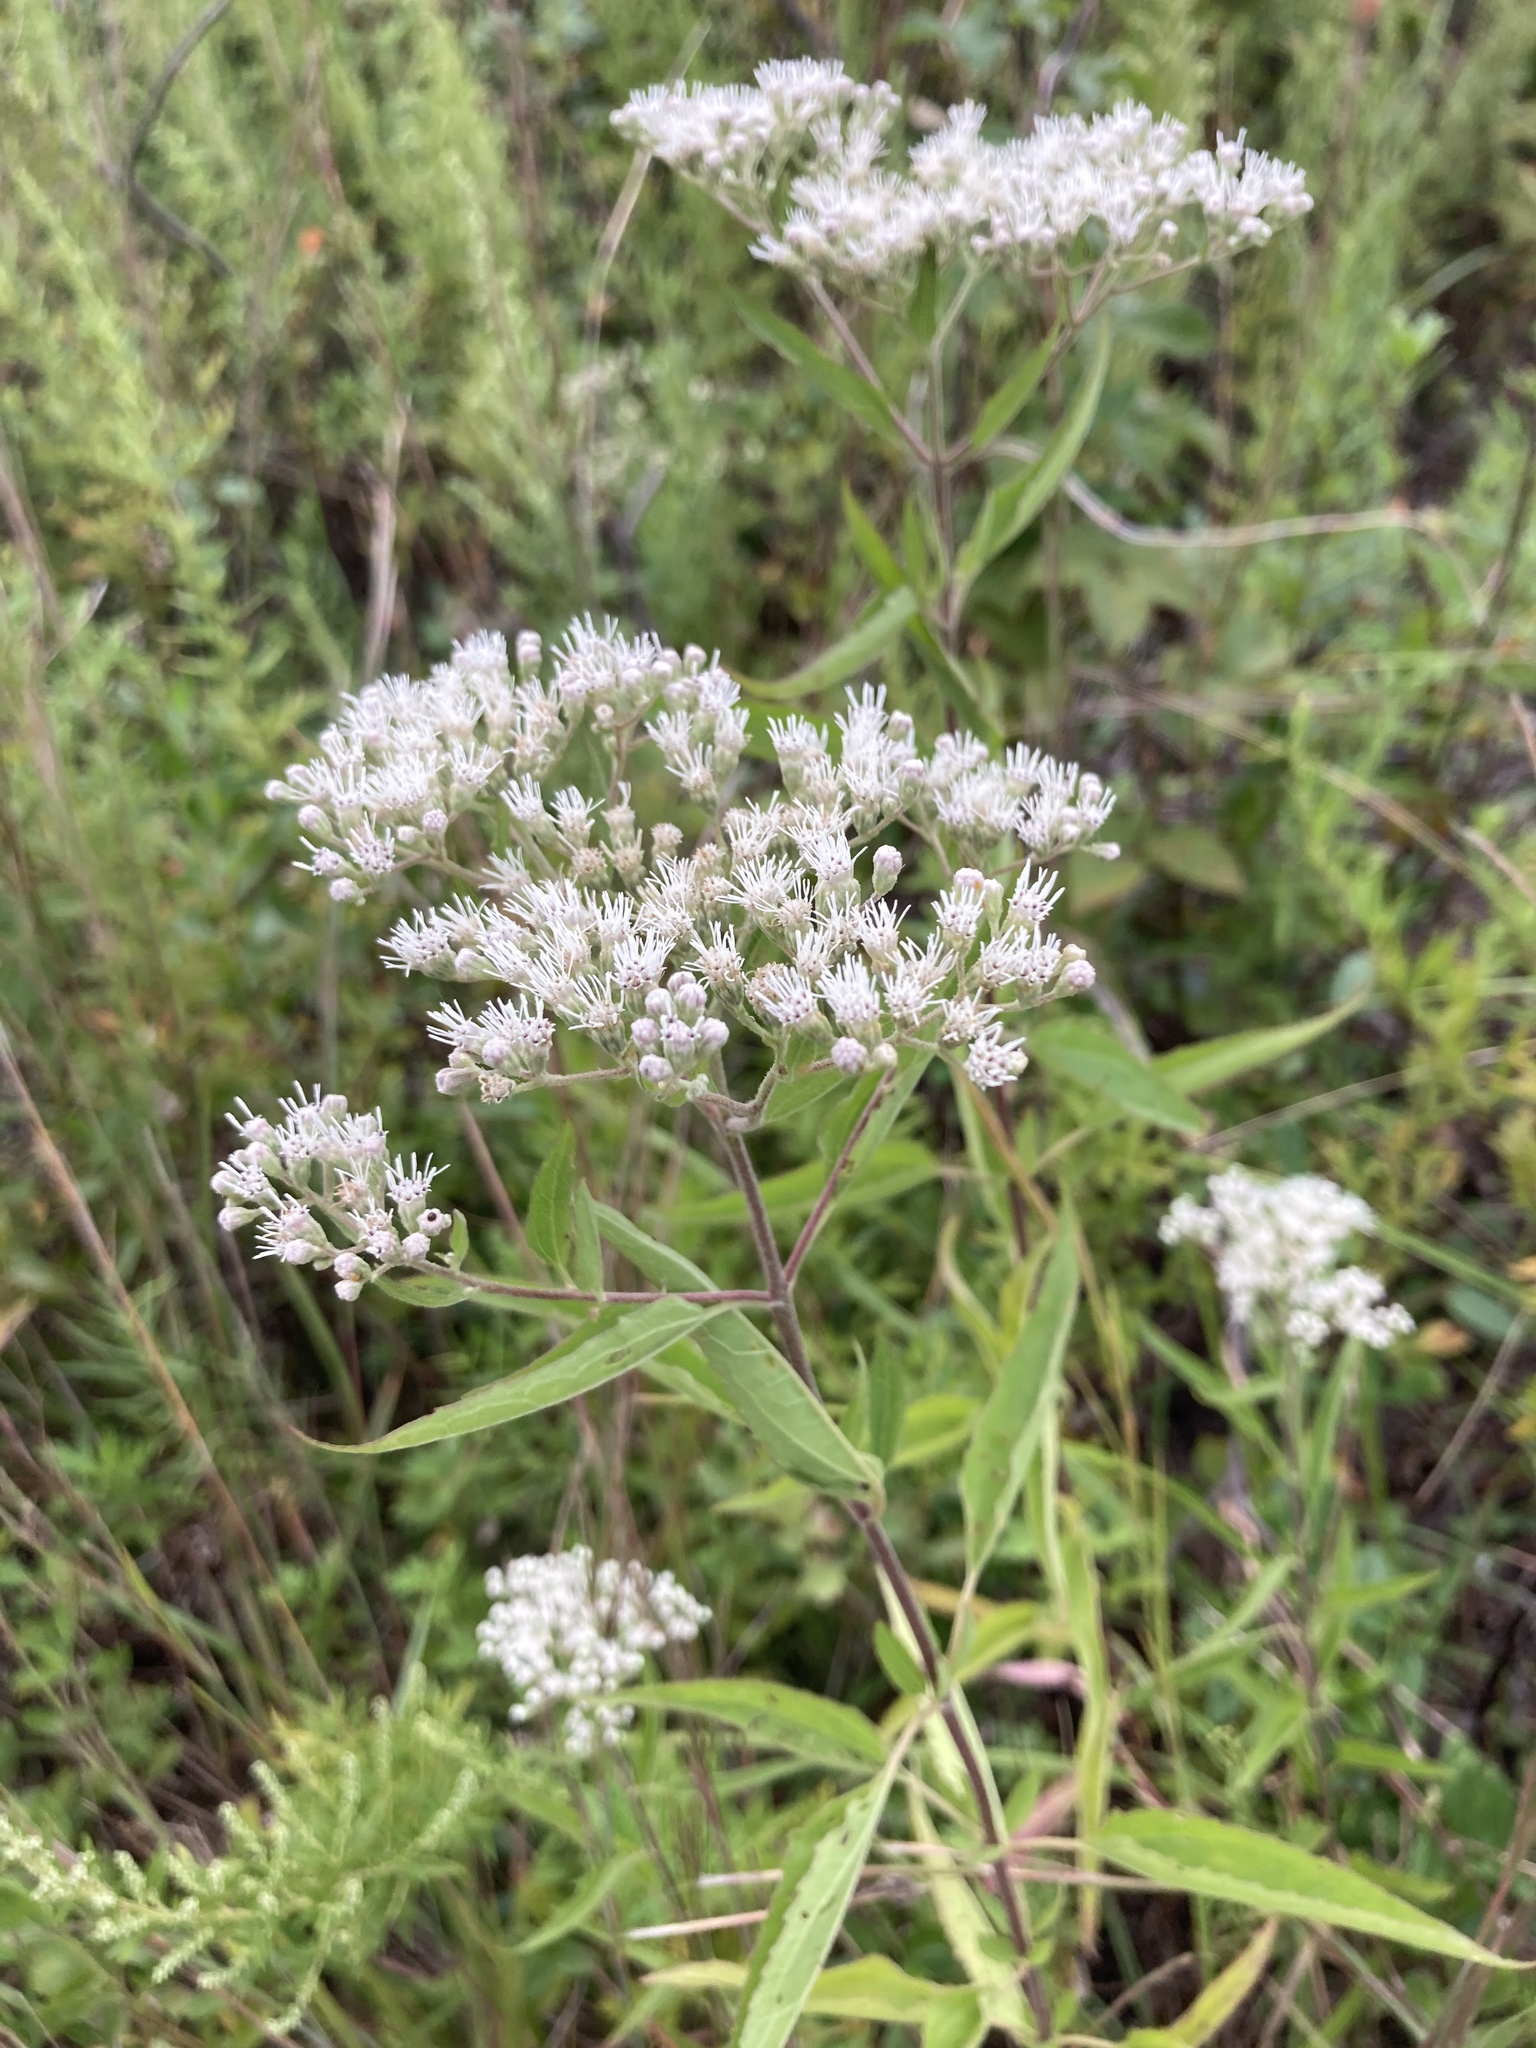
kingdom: Plantae
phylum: Tracheophyta
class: Magnoliopsida
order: Asterales
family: Asteraceae
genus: Eupatorium
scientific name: Eupatorium serotinum
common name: Late boneset
